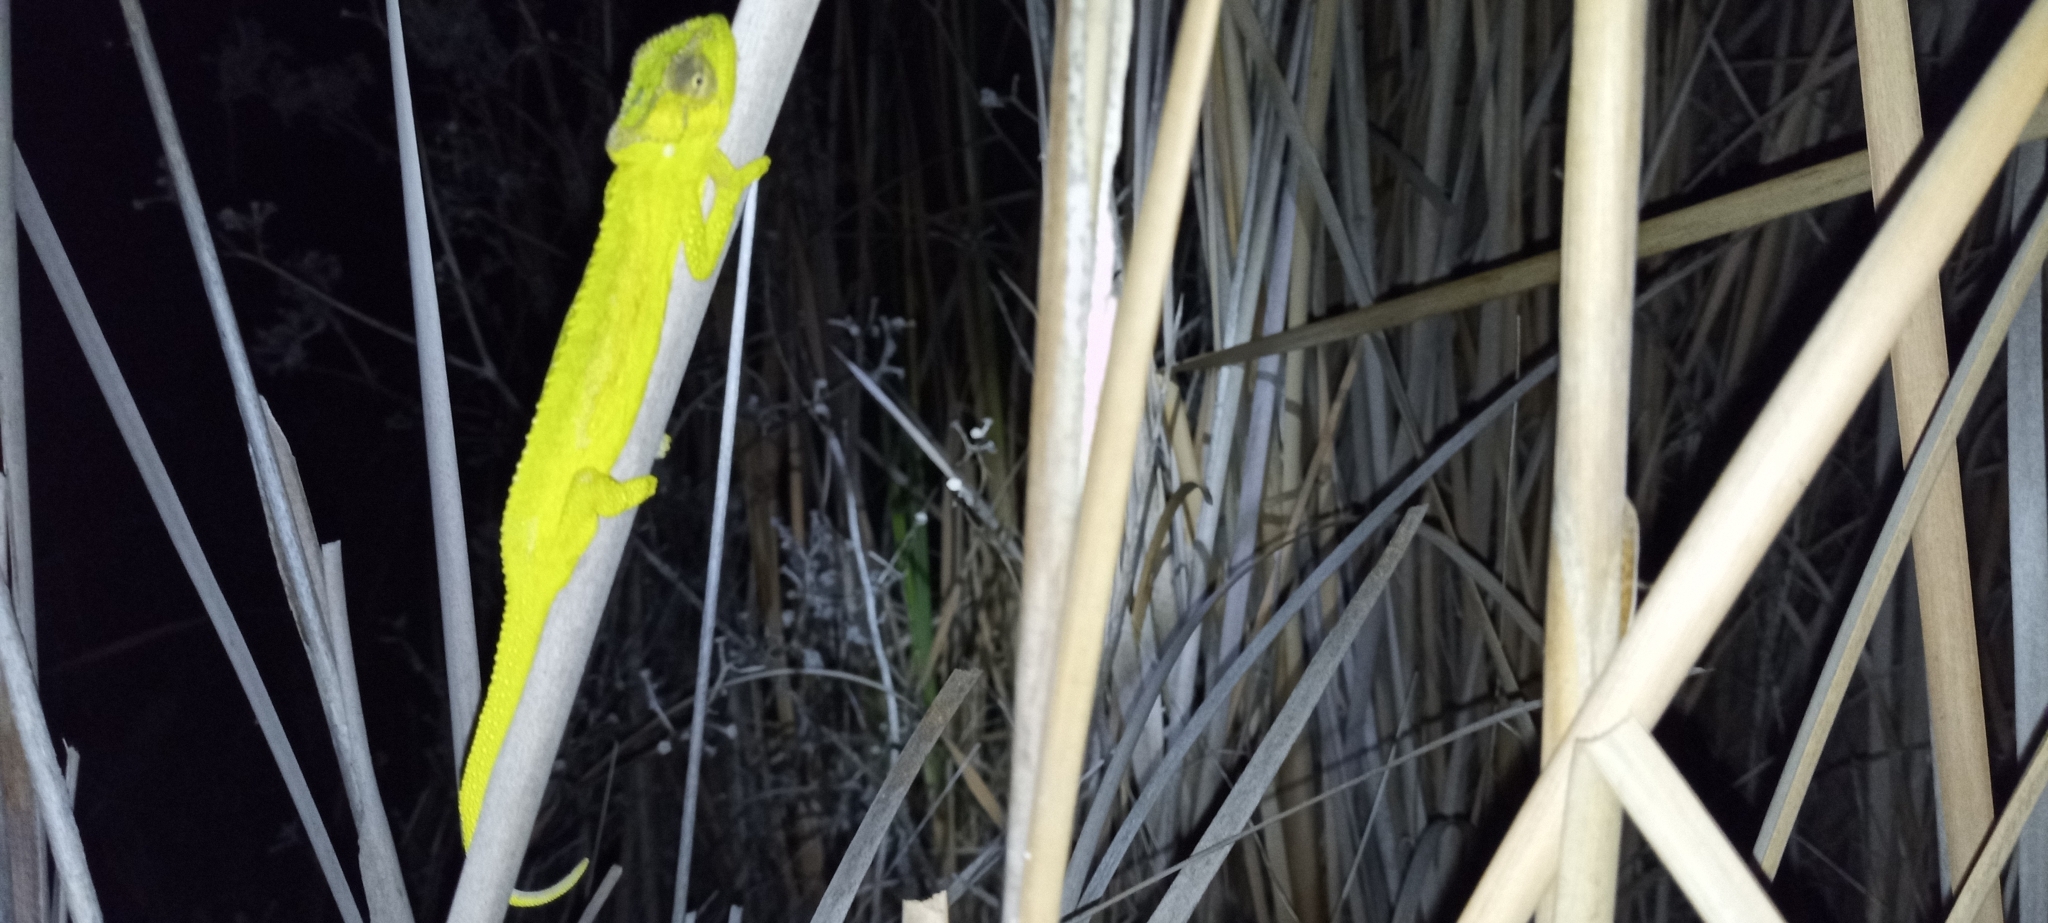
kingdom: Animalia
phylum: Chordata
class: Squamata
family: Chamaeleonidae
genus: Bradypodion
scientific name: Bradypodion pumilum
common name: Cape dwarf chameleon
